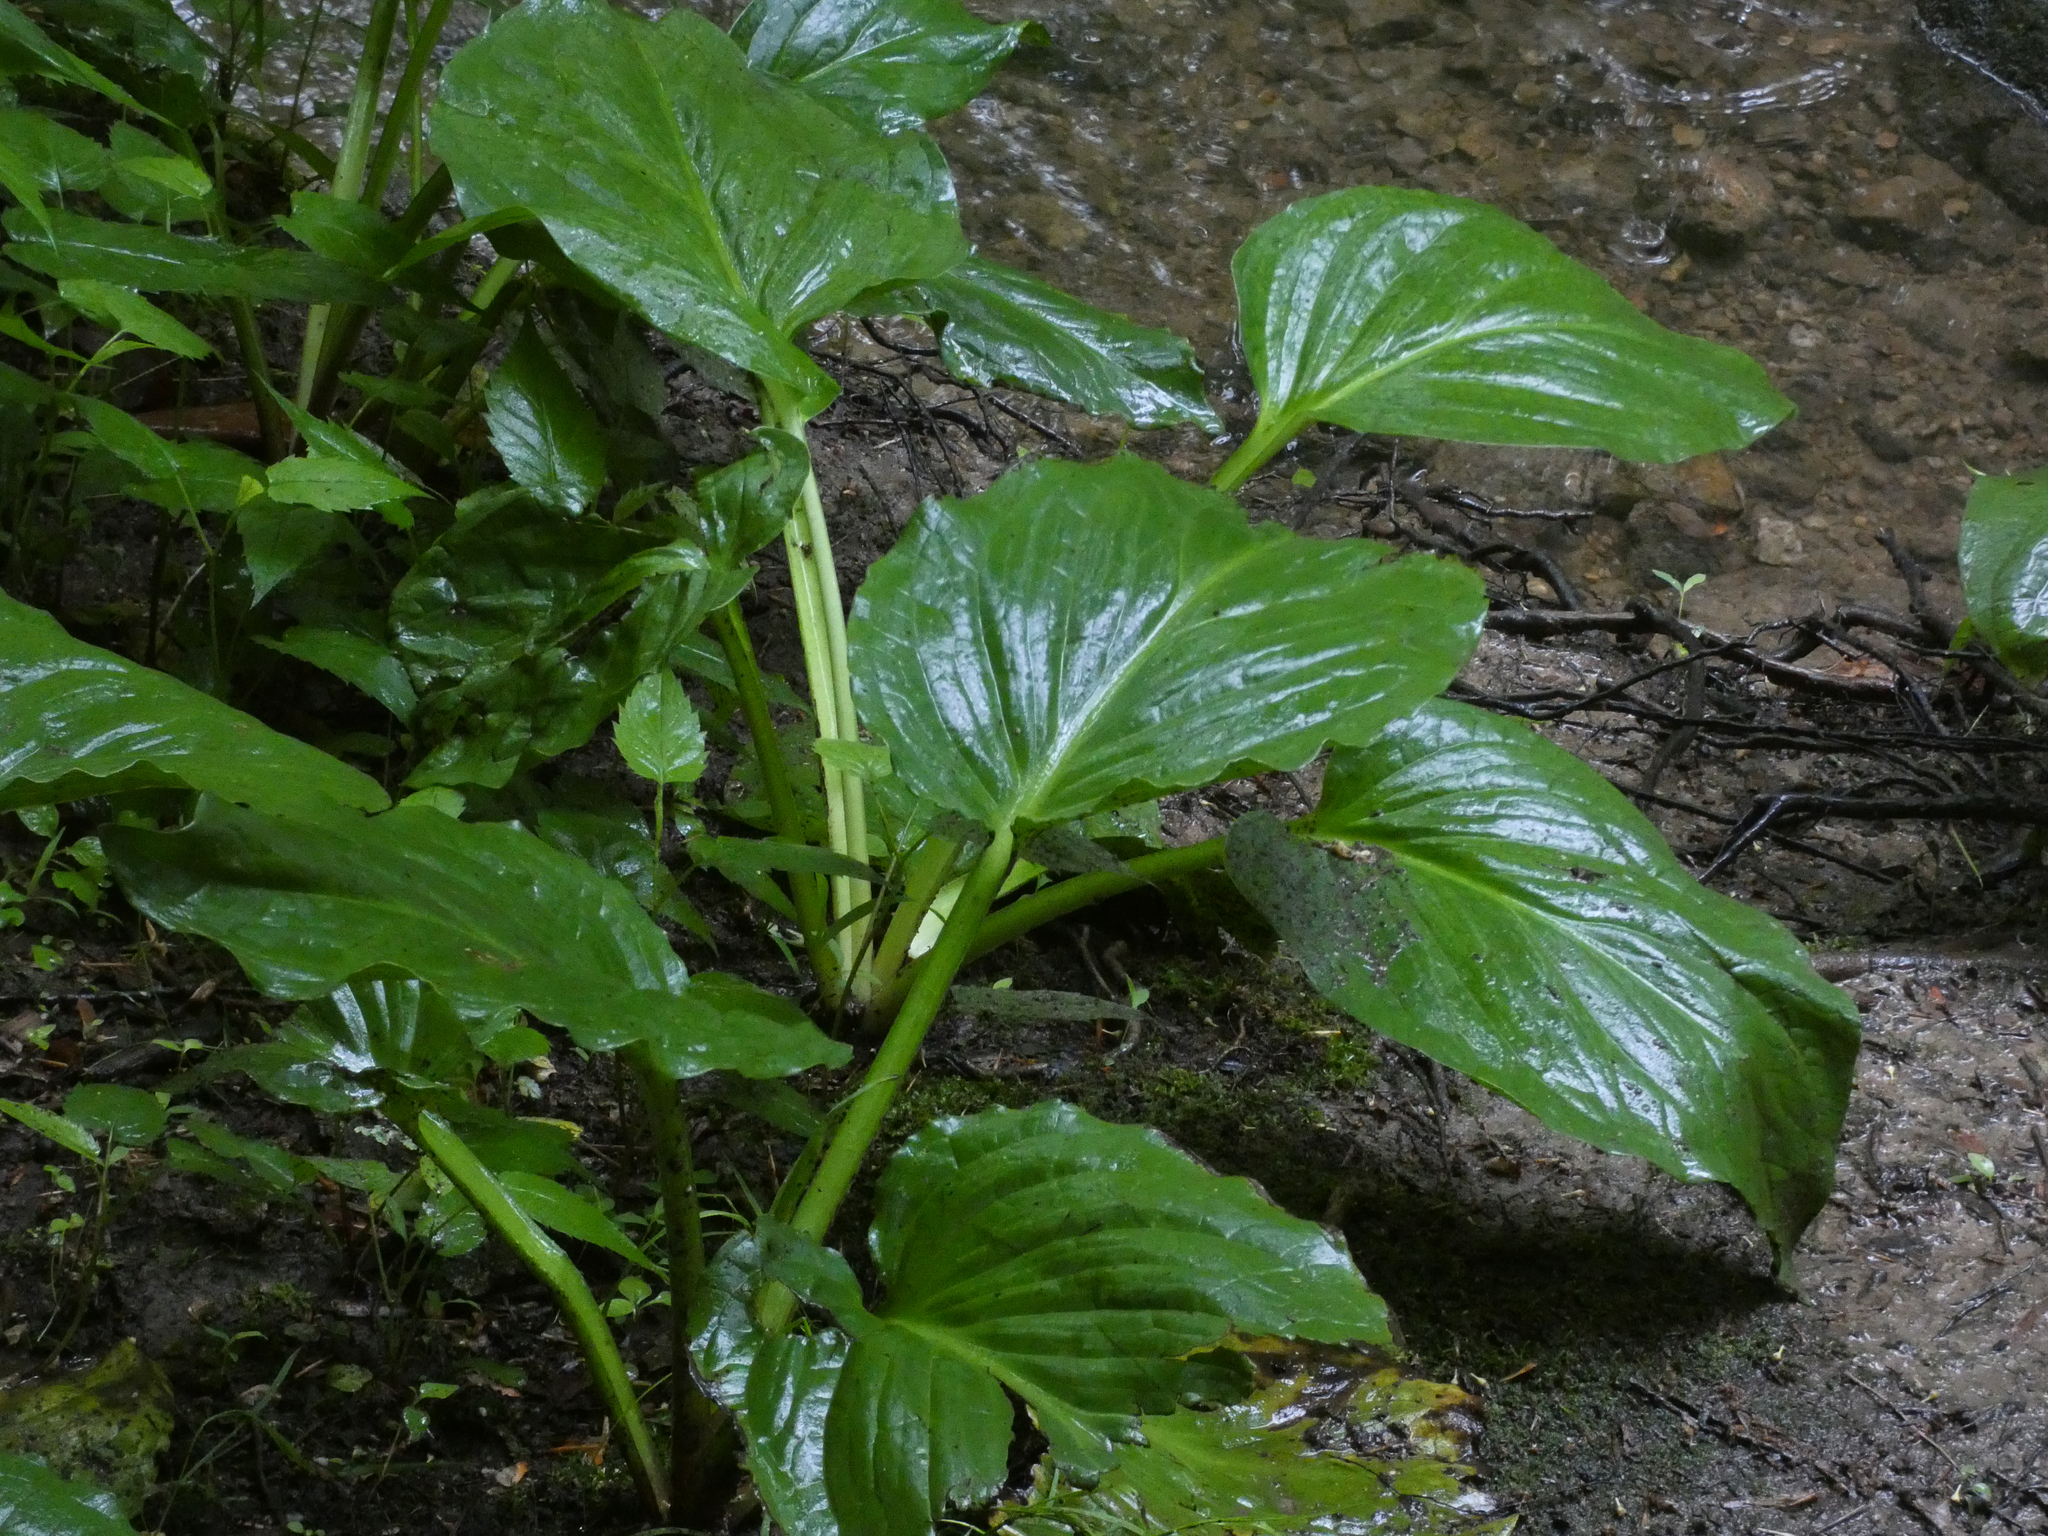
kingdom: Plantae
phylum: Tracheophyta
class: Liliopsida
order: Alismatales
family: Araceae
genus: Symplocarpus
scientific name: Symplocarpus foetidus
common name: Eastern skunk cabbage
